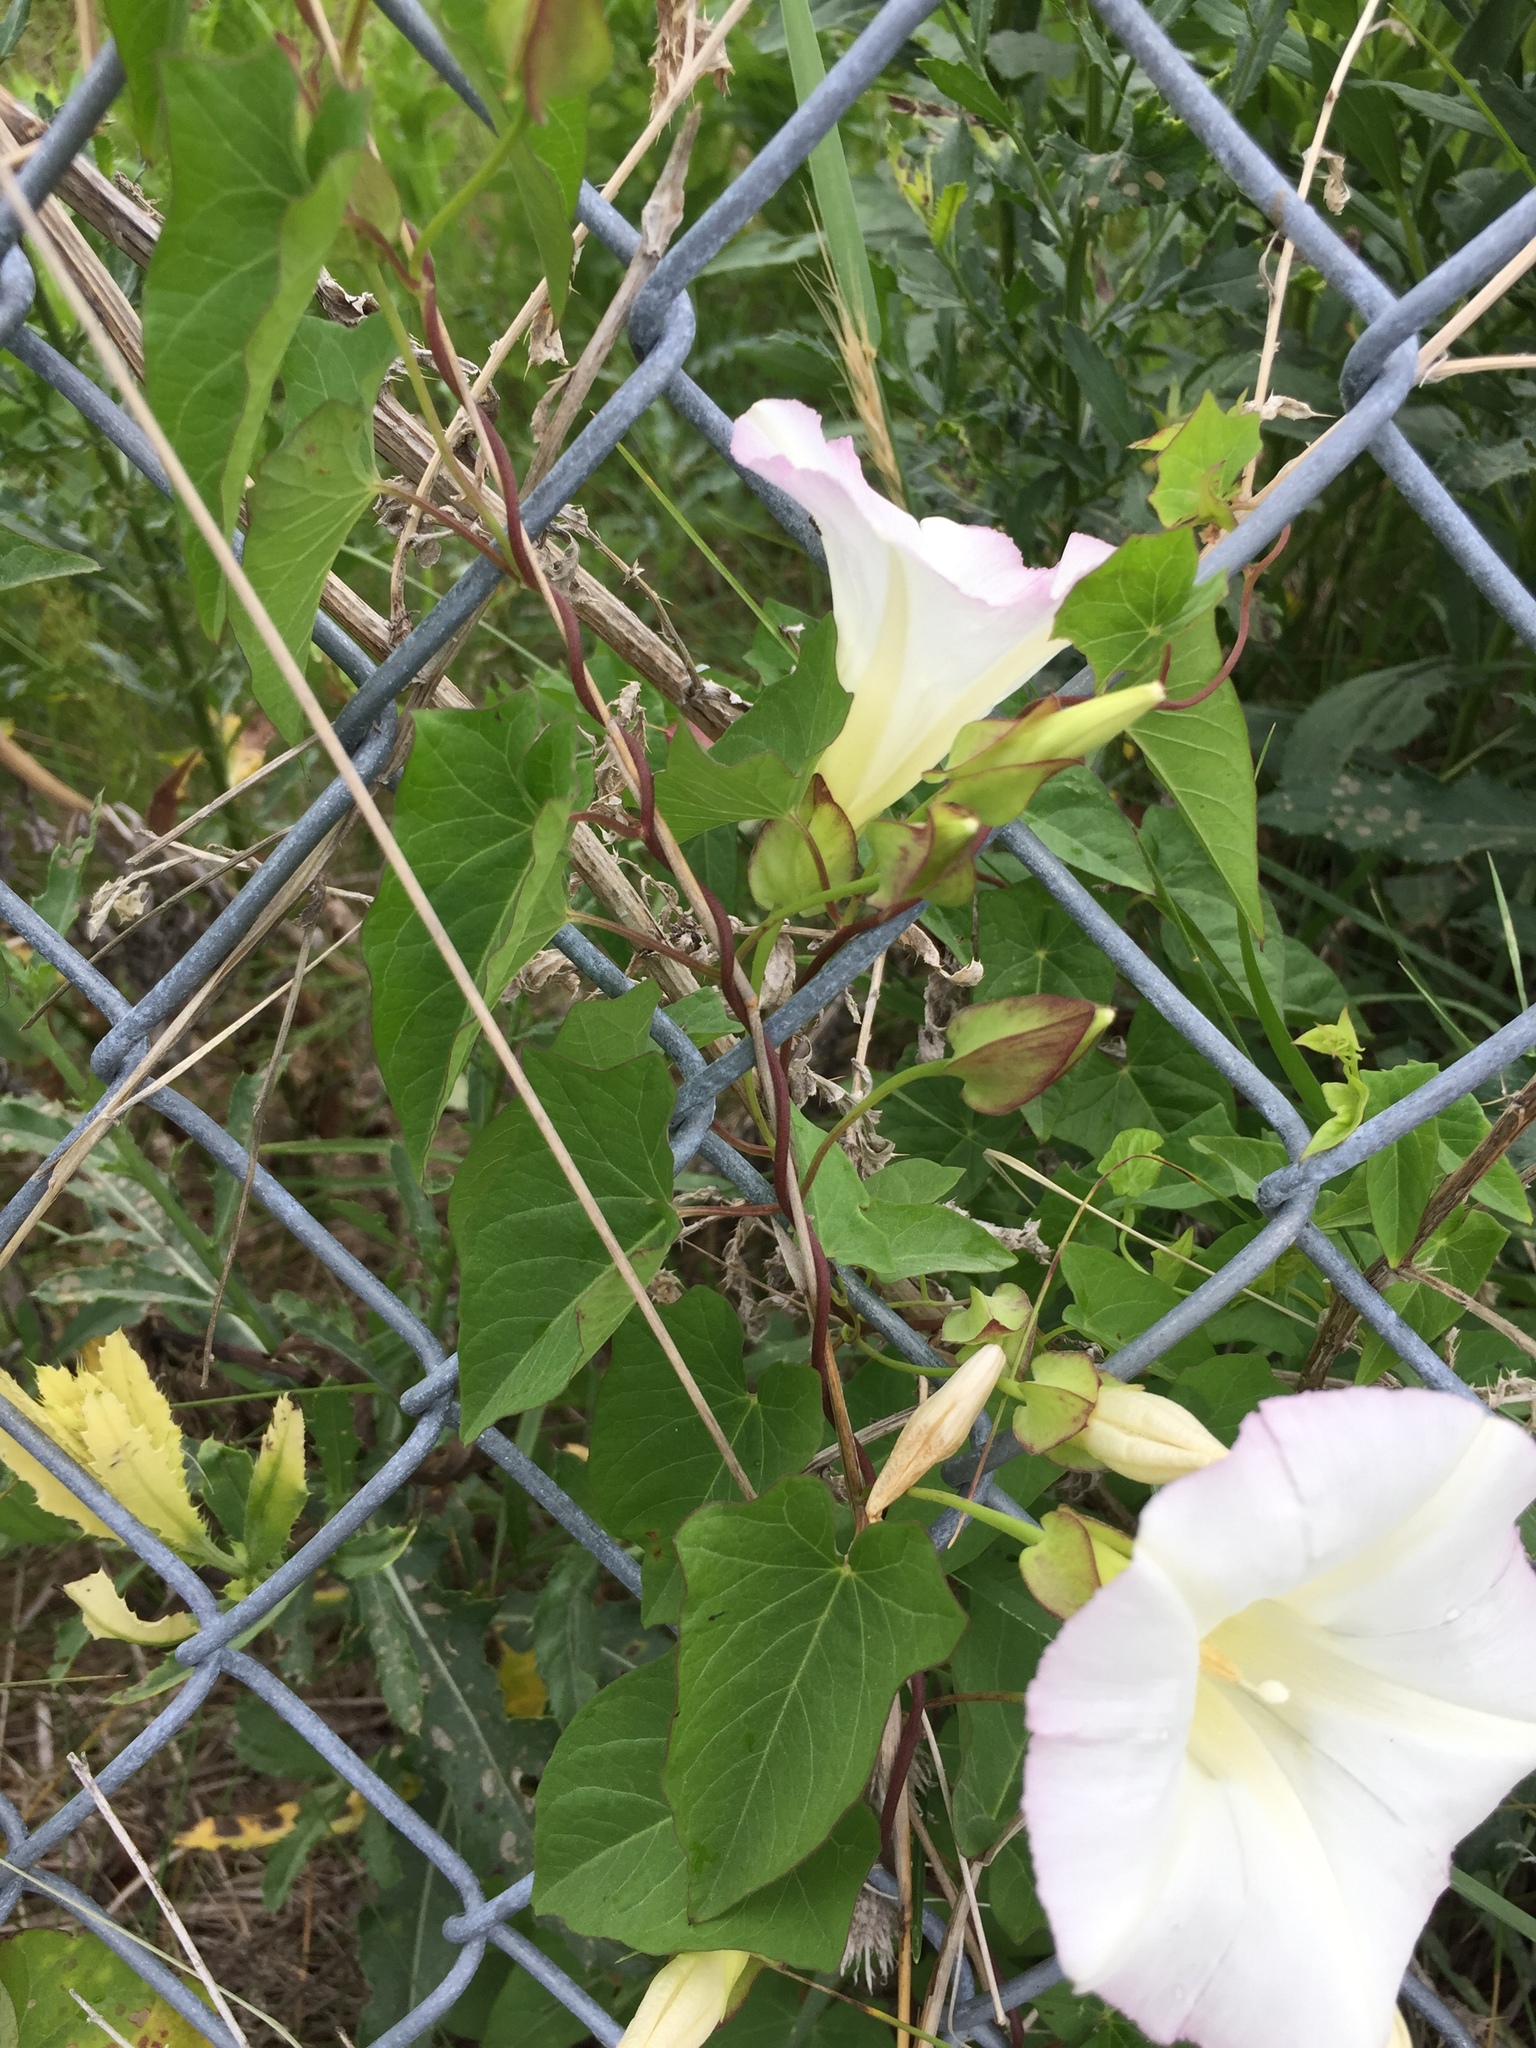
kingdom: Plantae
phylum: Tracheophyta
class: Magnoliopsida
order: Solanales
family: Convolvulaceae
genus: Calystegia
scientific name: Calystegia sepium
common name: Hedge bindweed
